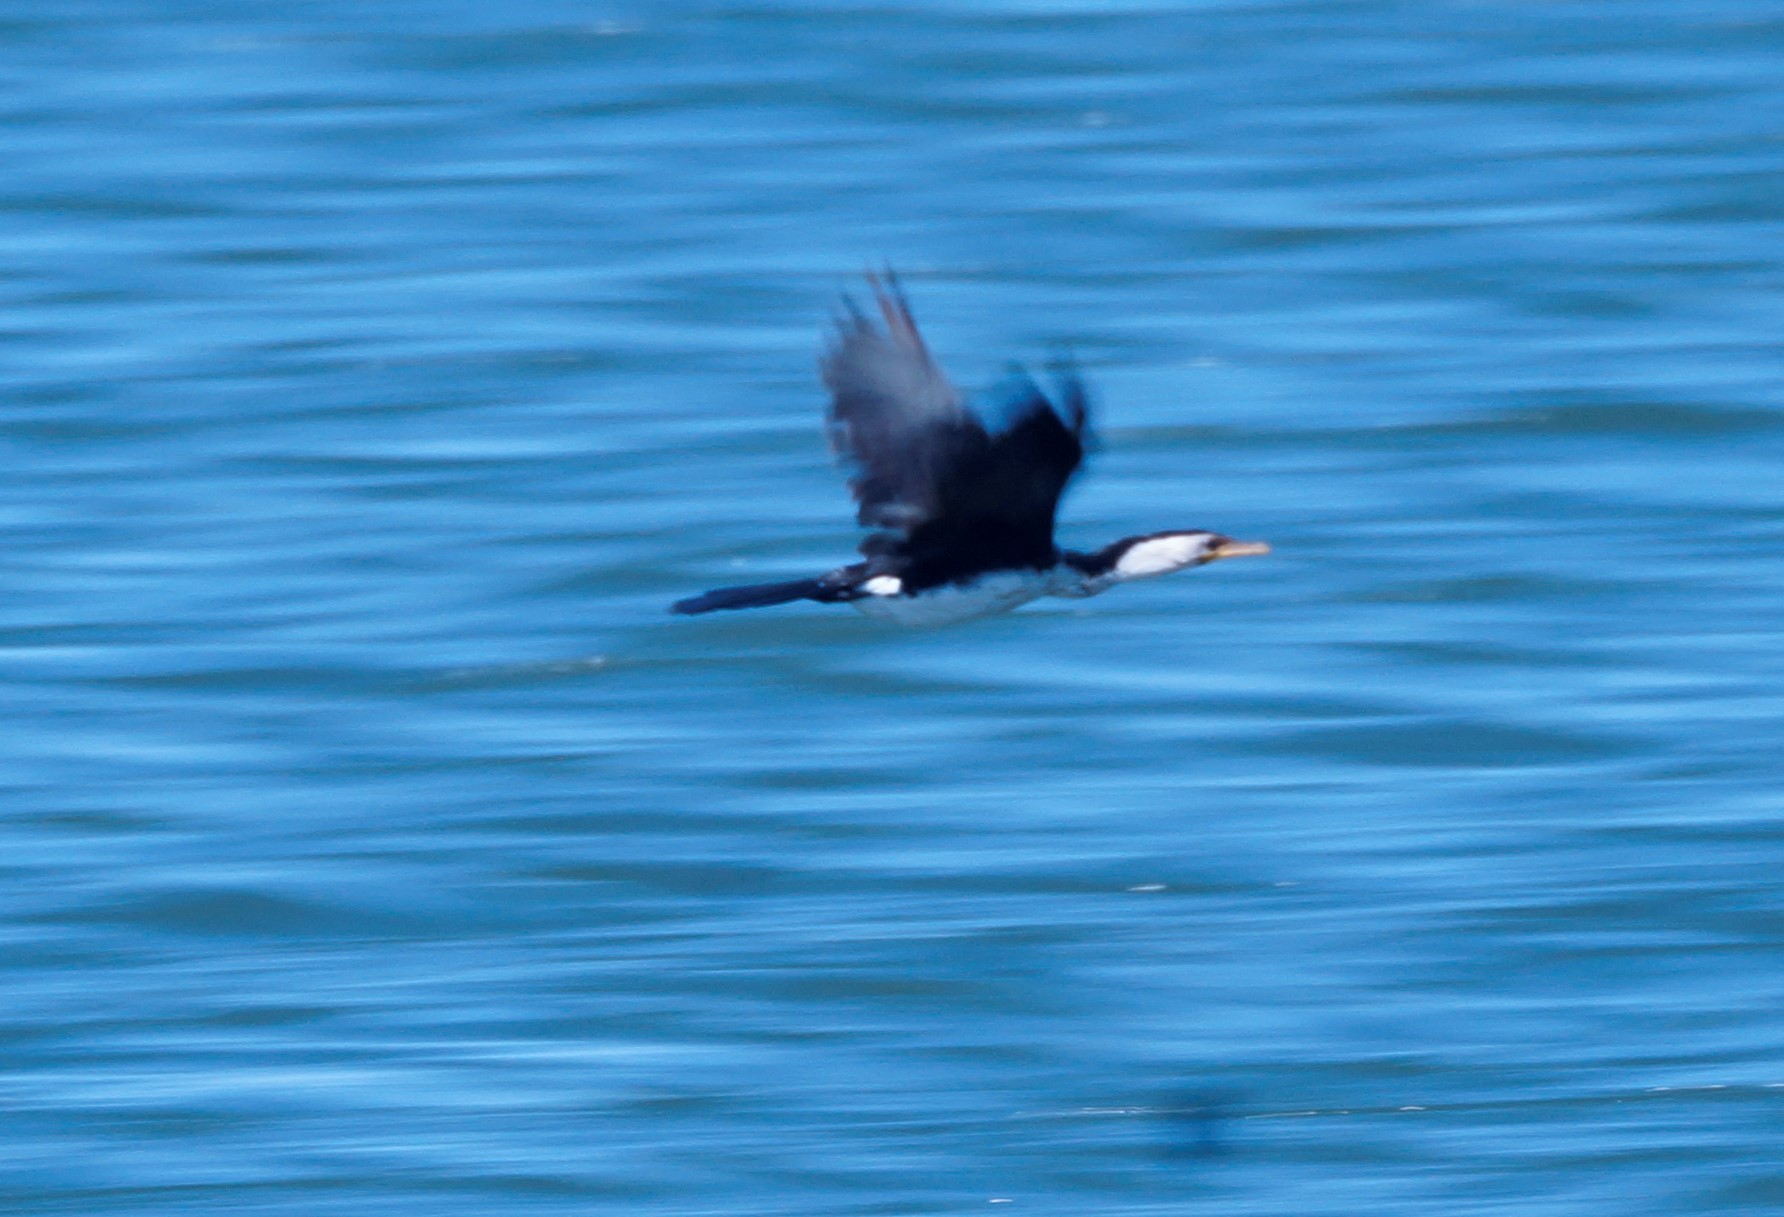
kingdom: Animalia
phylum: Chordata
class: Aves
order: Suliformes
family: Phalacrocoracidae
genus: Microcarbo
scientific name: Microcarbo melanoleucos
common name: Little pied cormorant
